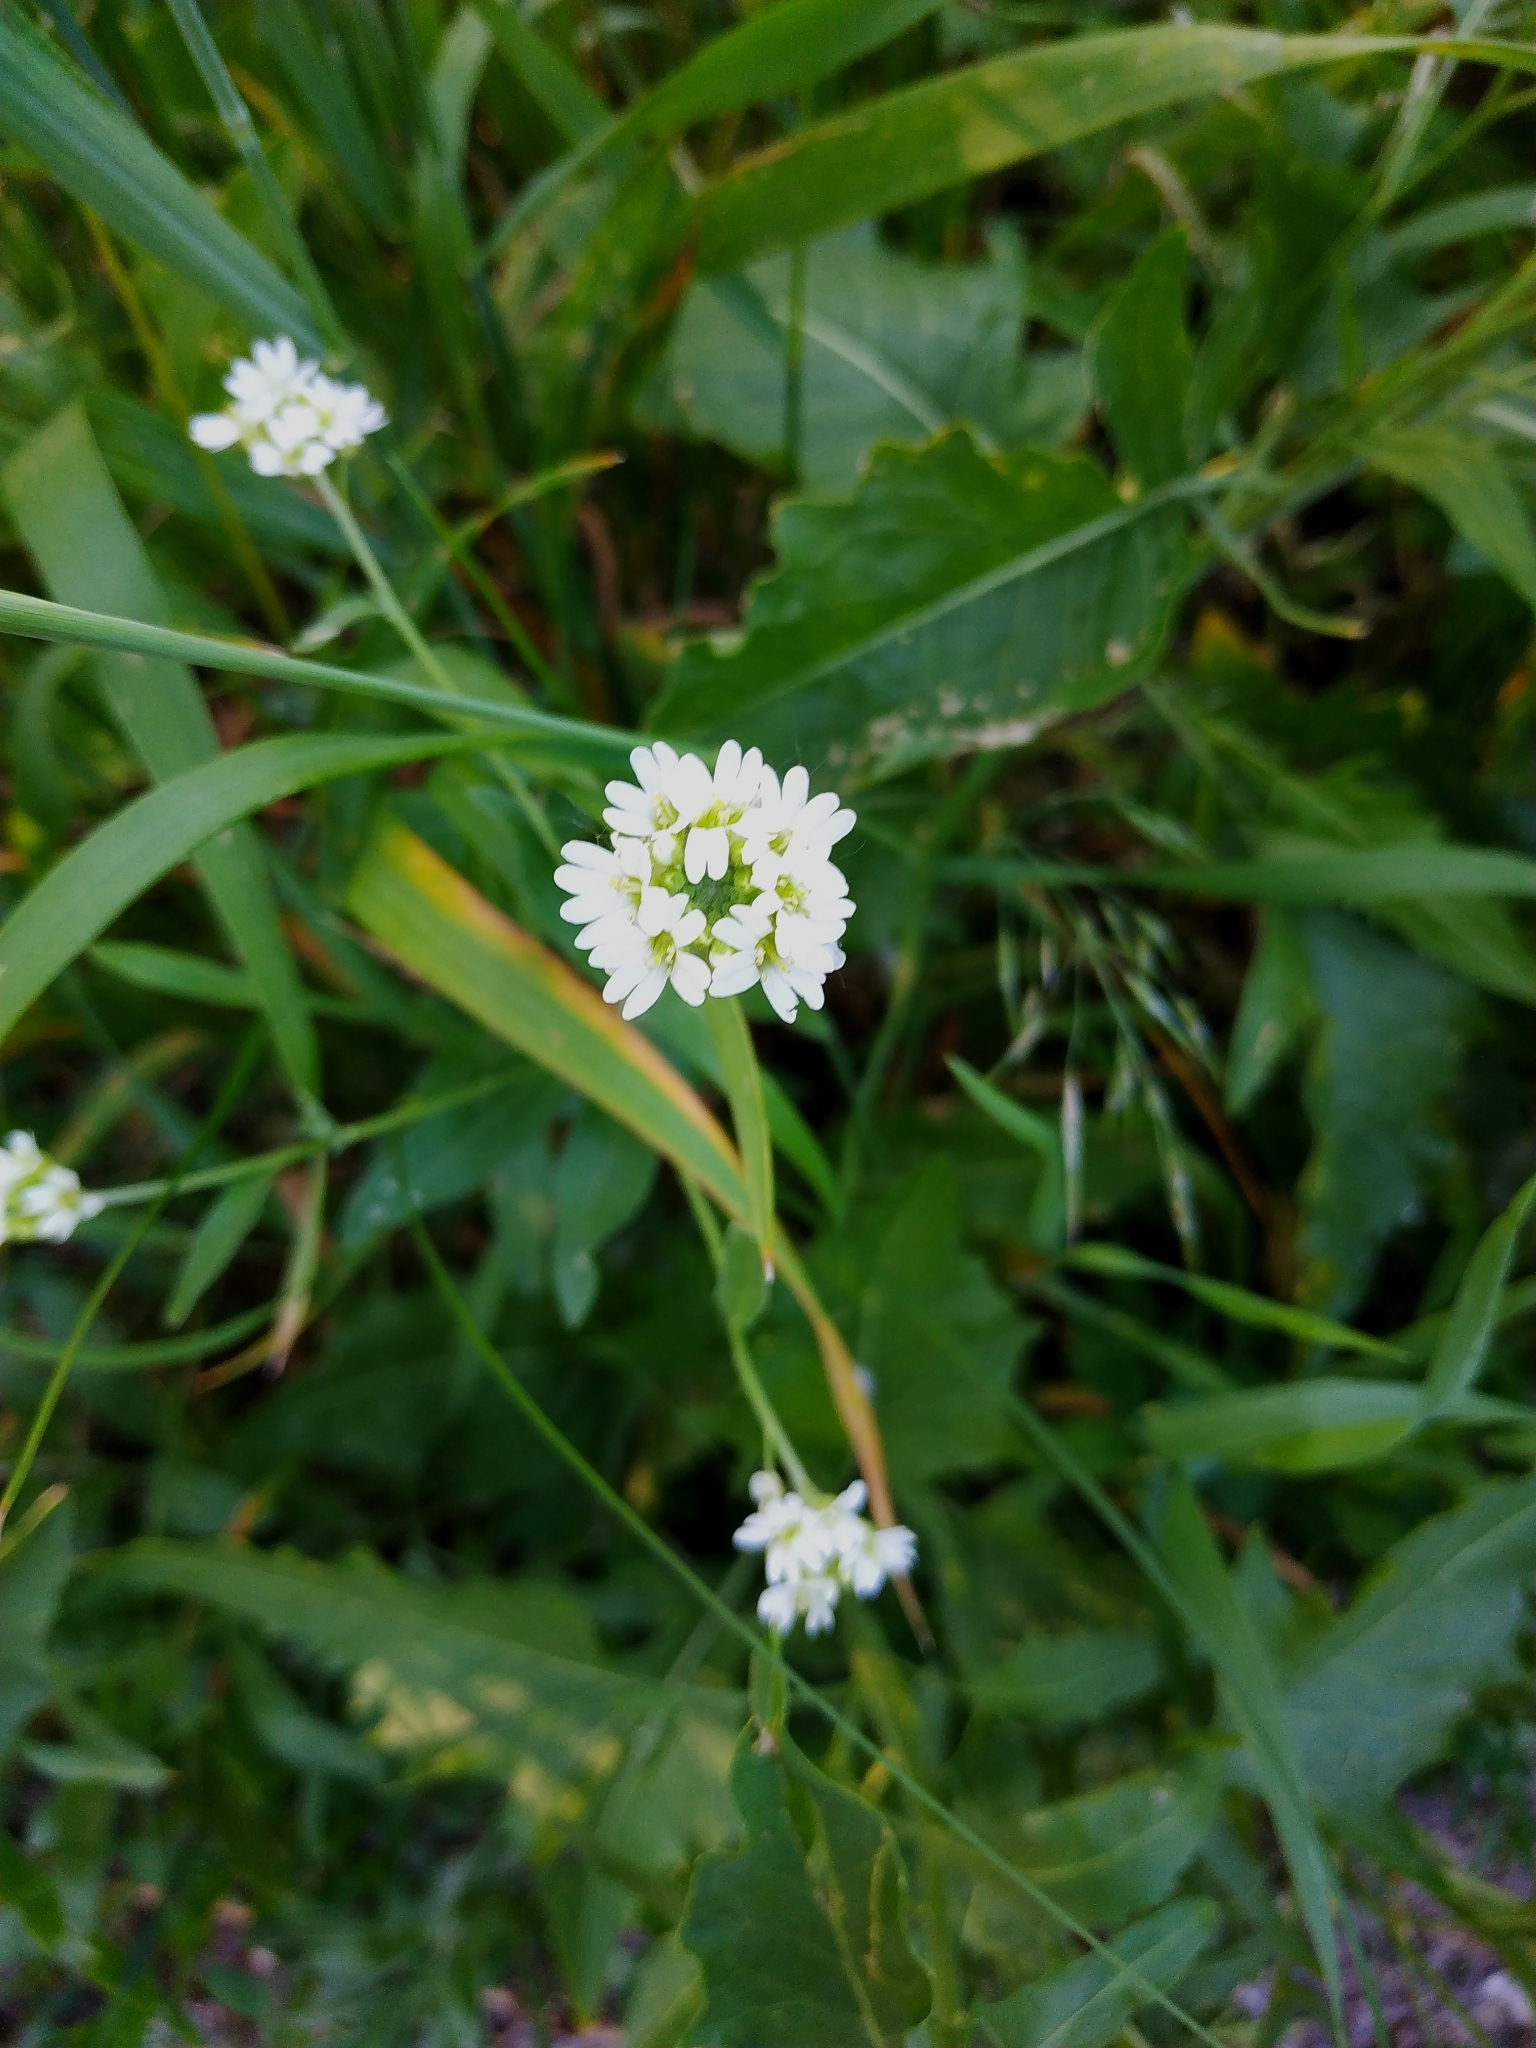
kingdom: Plantae
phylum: Tracheophyta
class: Magnoliopsida
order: Brassicales
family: Brassicaceae
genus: Berteroa
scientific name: Berteroa incana
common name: Hoary alison
